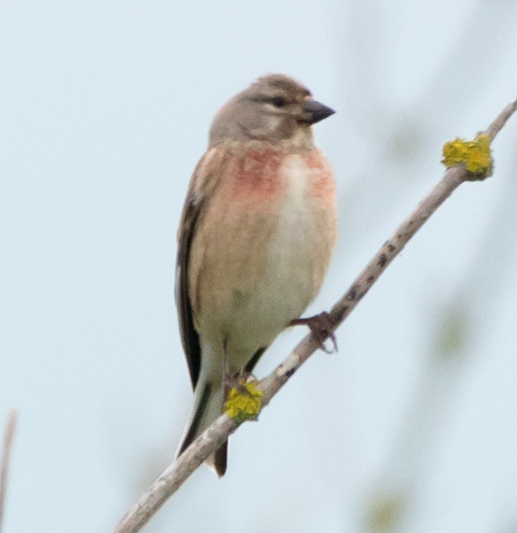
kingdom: Animalia
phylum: Chordata
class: Aves
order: Passeriformes
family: Fringillidae
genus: Linaria
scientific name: Linaria cannabina
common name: Common linnet
